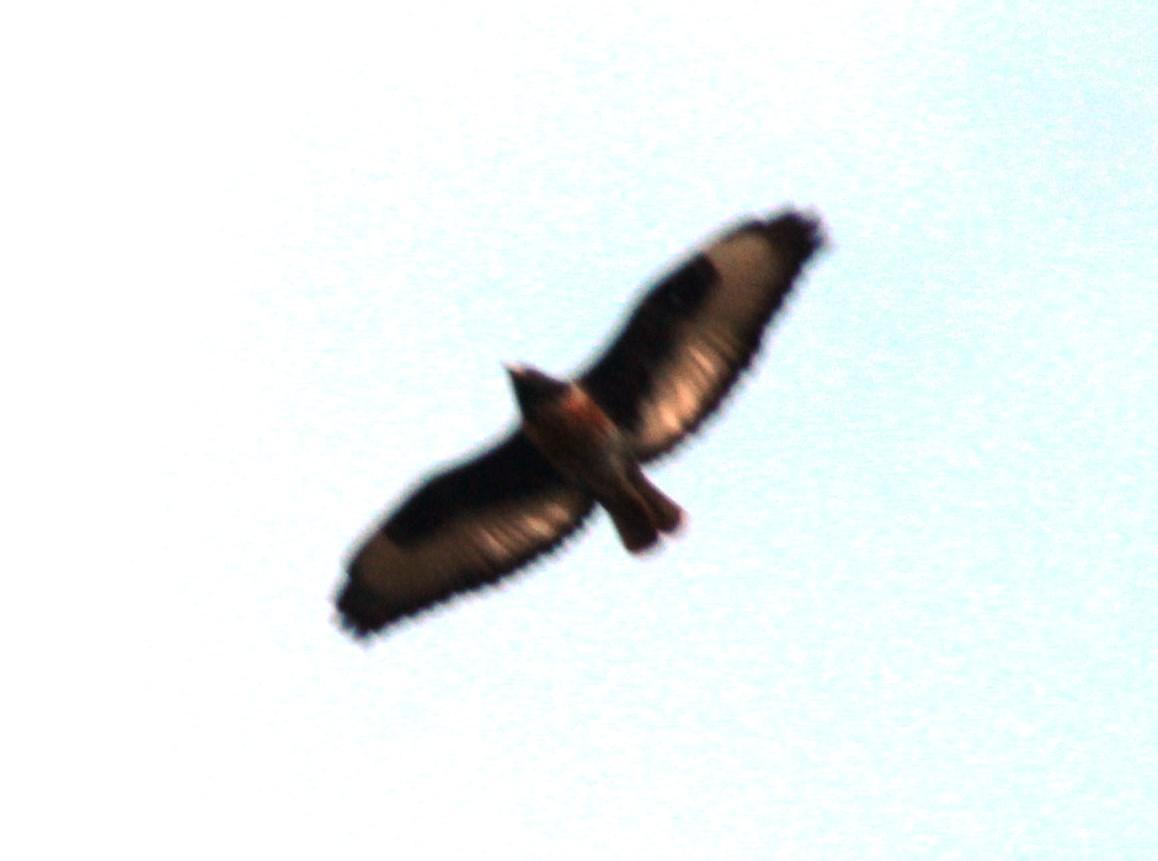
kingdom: Animalia
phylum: Chordata
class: Aves
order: Accipitriformes
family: Accipitridae
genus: Buteo
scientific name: Buteo rufofuscus
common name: Jackal buzzard
